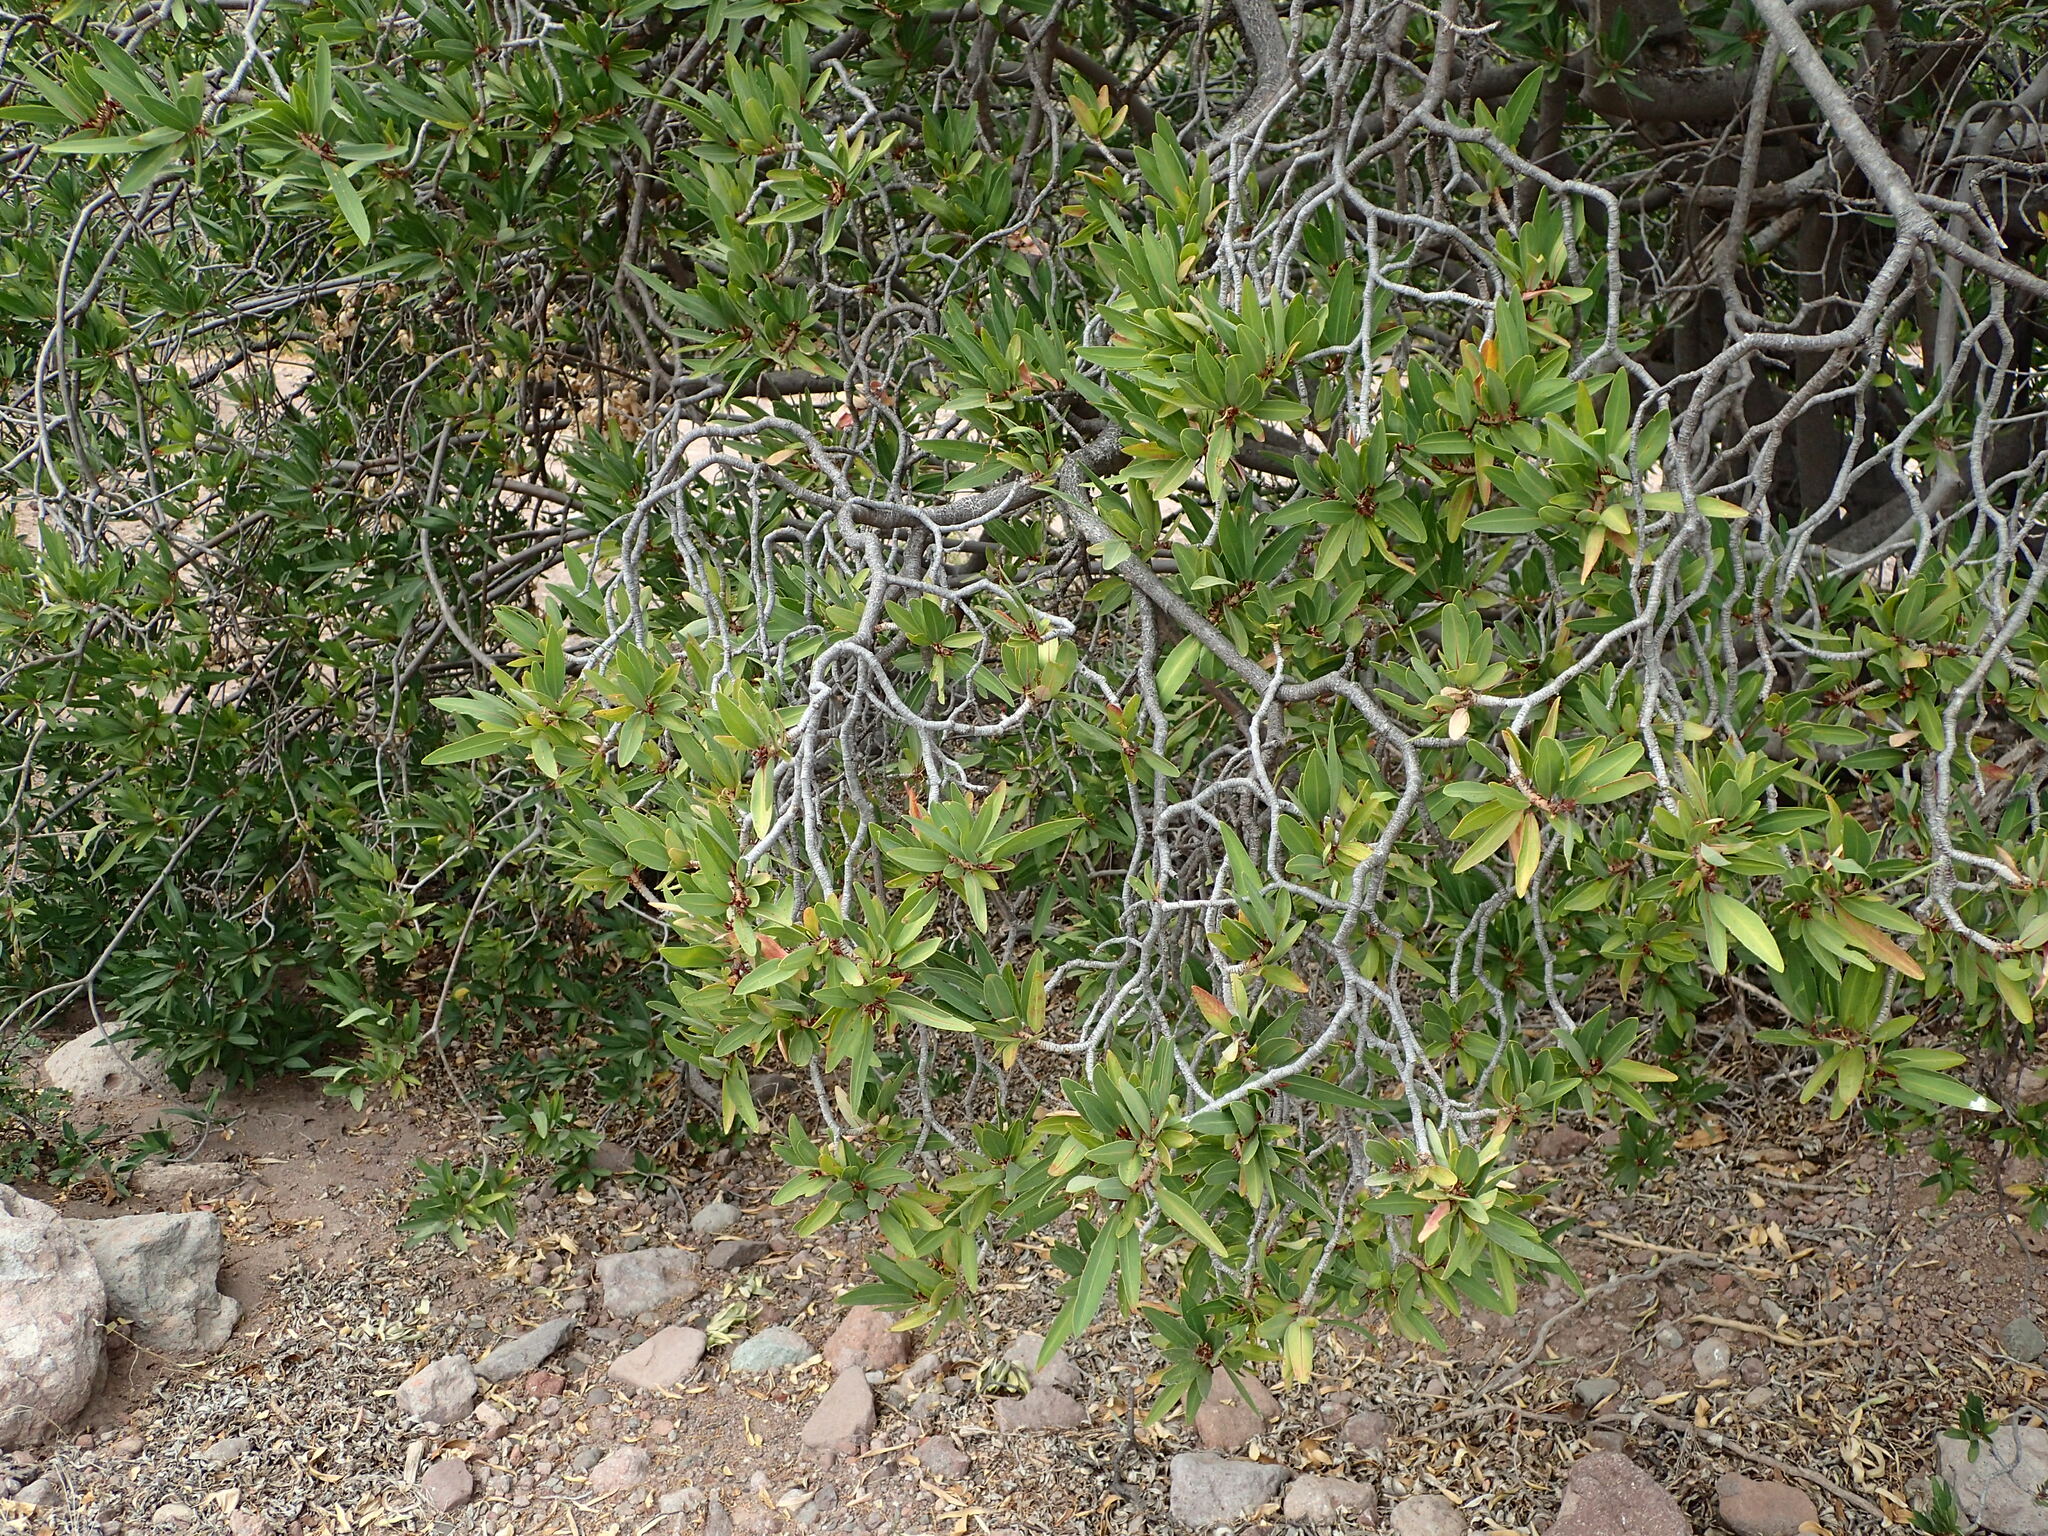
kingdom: Plantae
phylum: Tracheophyta
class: Magnoliopsida
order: Malpighiales
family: Euphorbiaceae
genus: Pleradenophora
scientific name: Pleradenophora bilocularis
